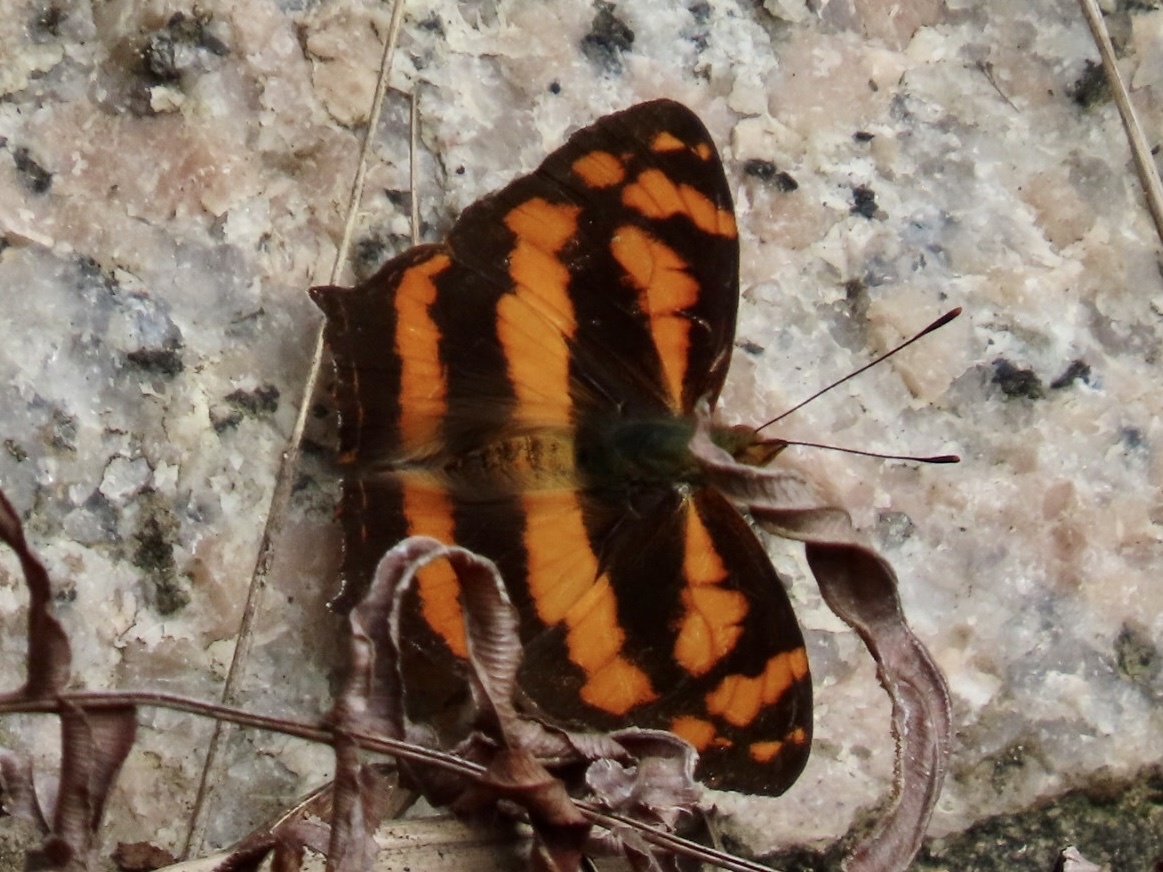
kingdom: Animalia
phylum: Arthropoda
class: Insecta
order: Lepidoptera
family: Nymphalidae
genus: Symbrenthia
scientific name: Symbrenthia hypselis
